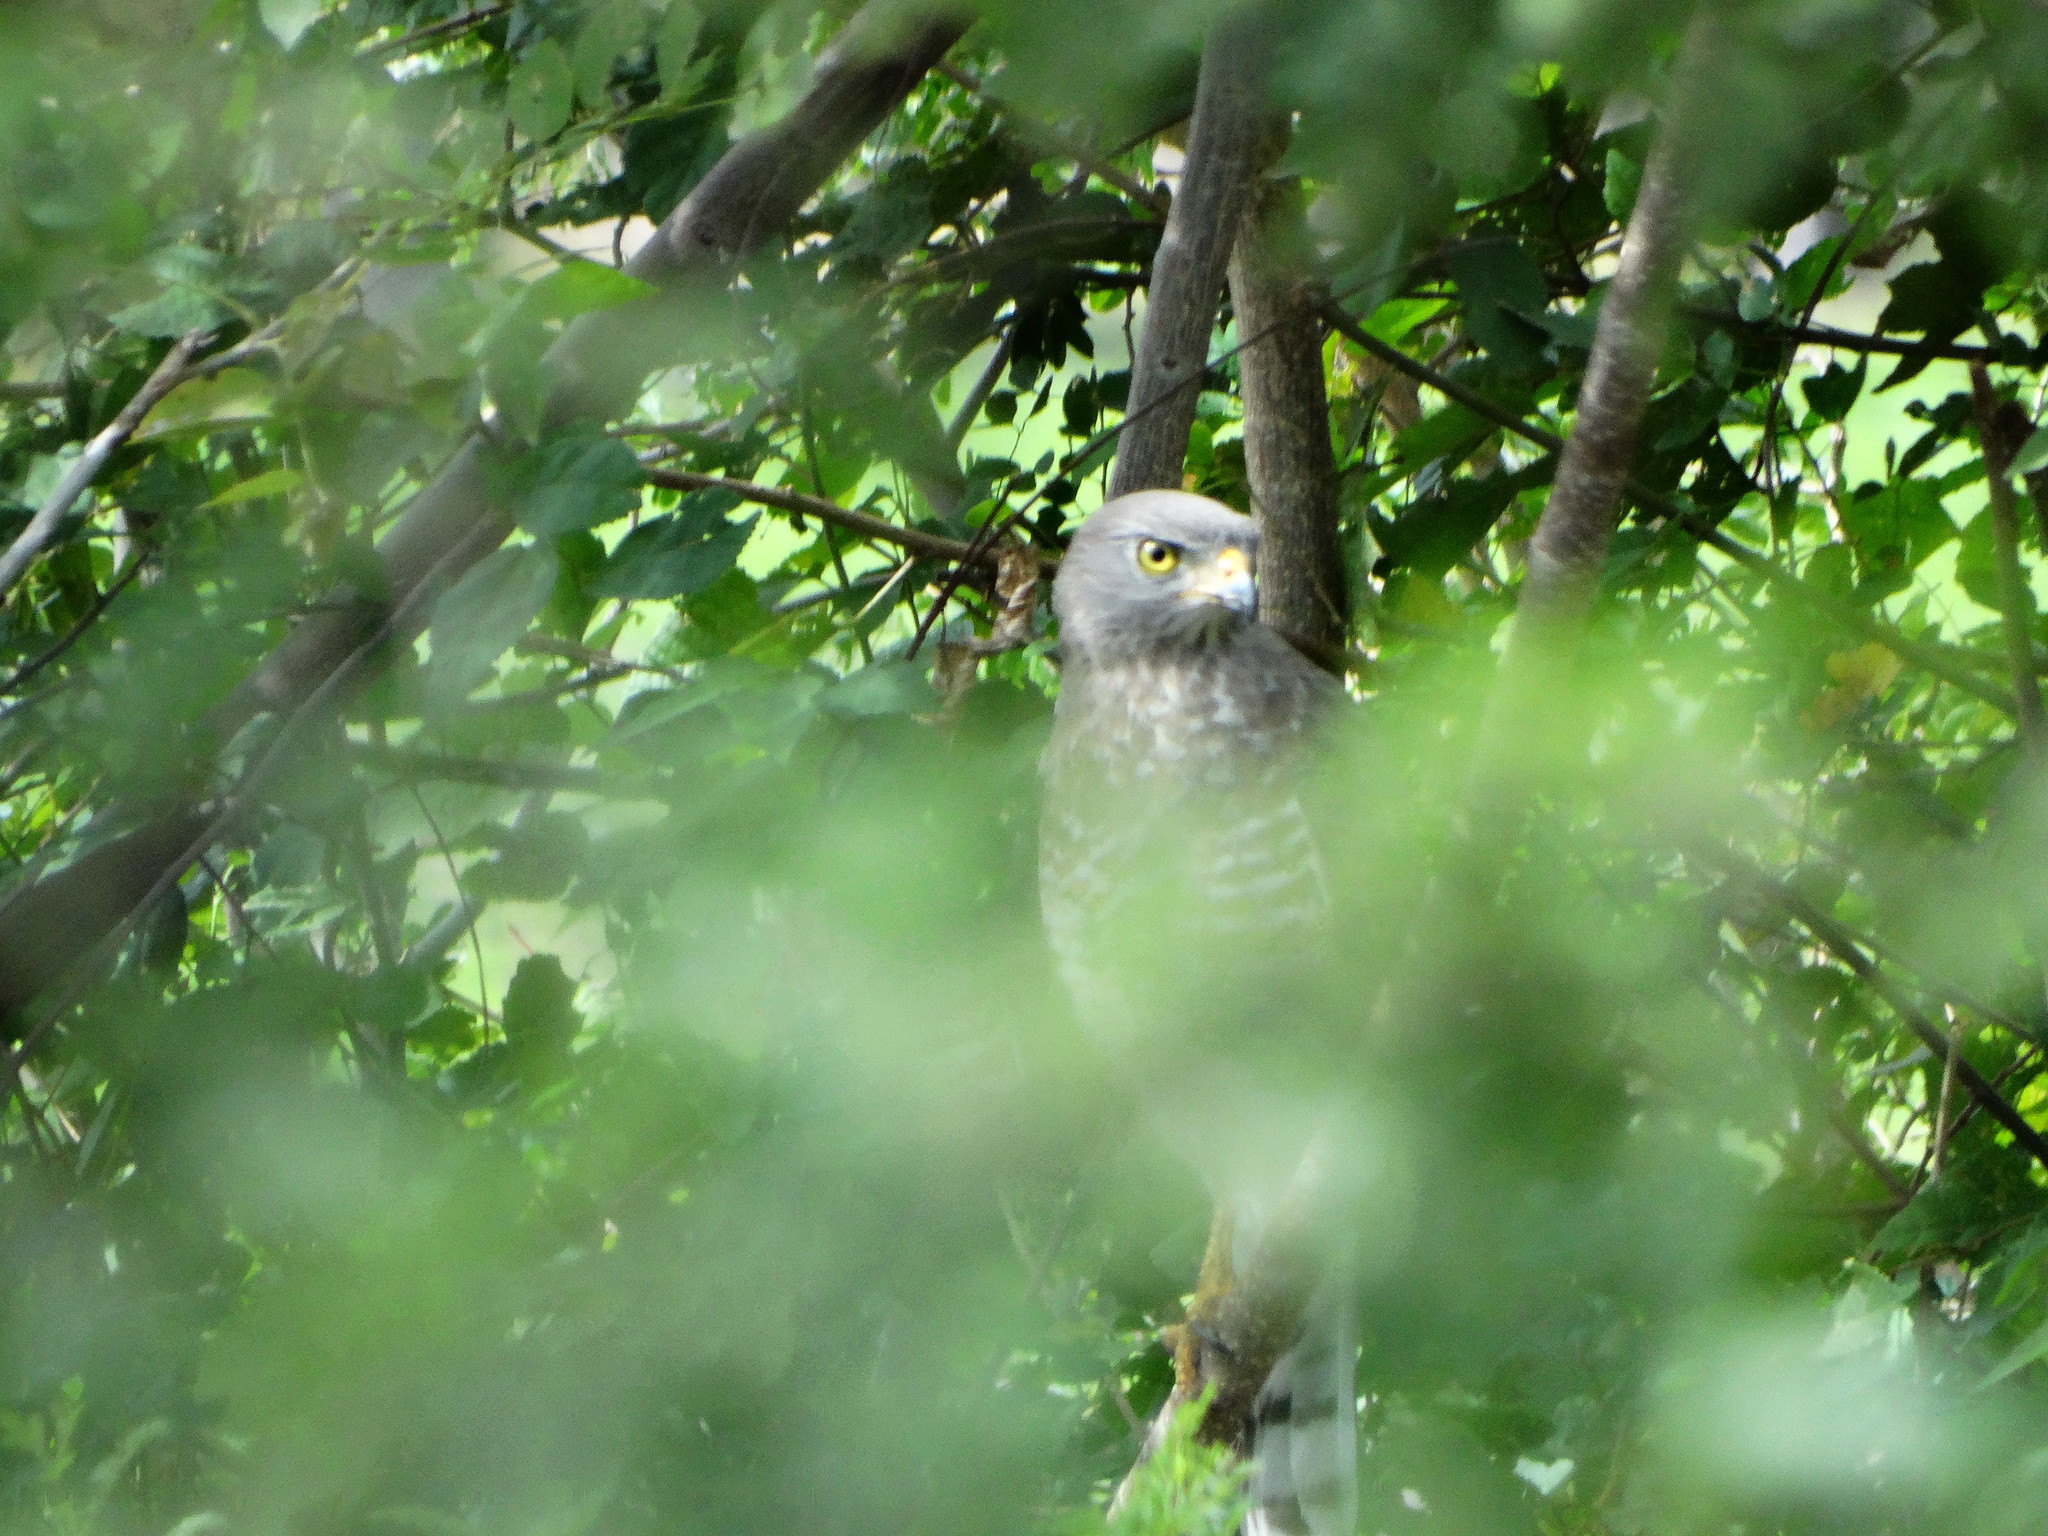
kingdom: Animalia
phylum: Chordata
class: Aves
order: Accipitriformes
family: Accipitridae
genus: Rupornis
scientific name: Rupornis magnirostris
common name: Roadside hawk
